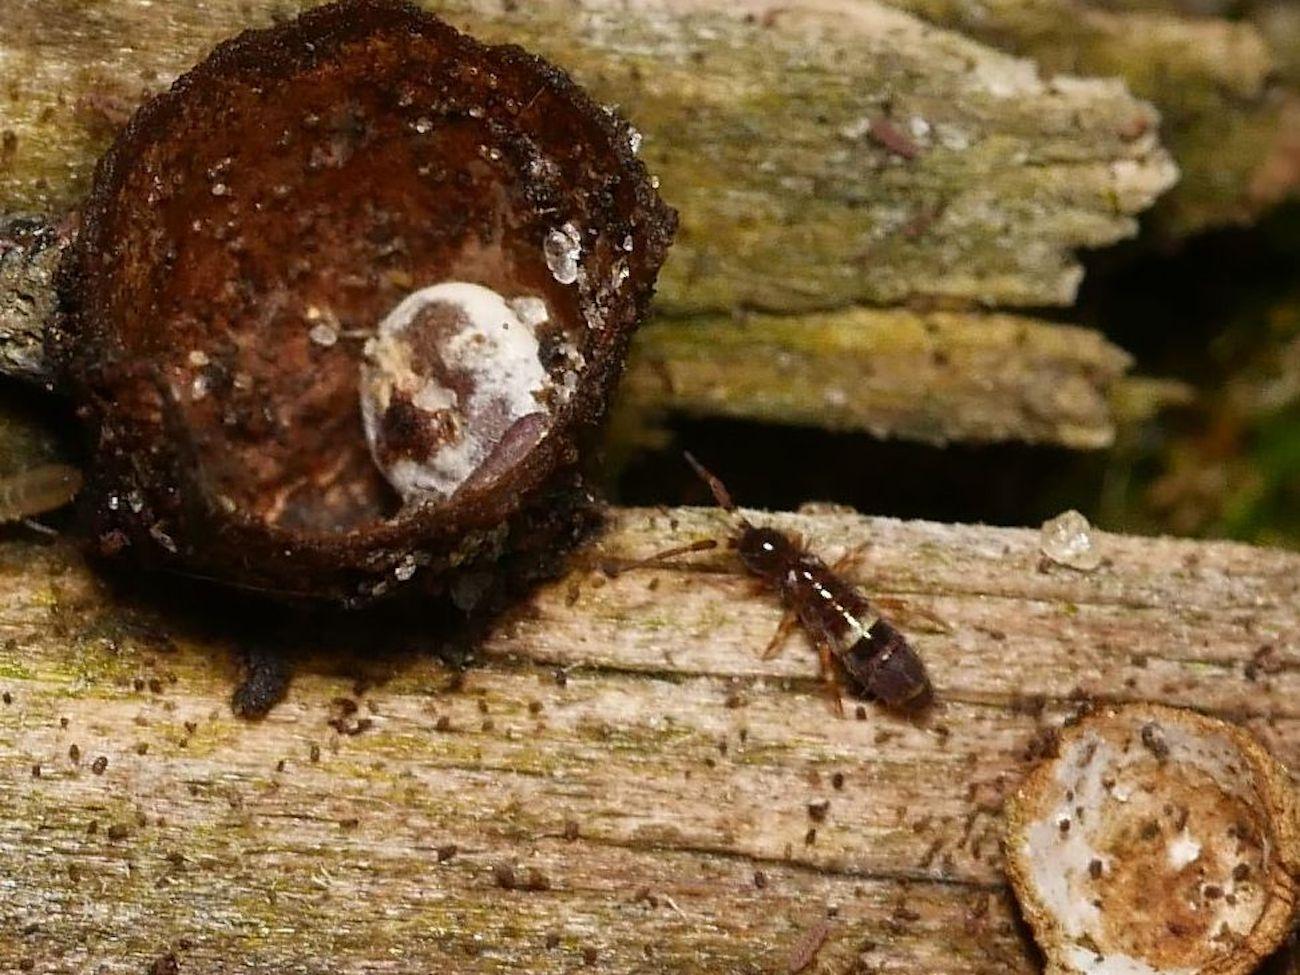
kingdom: Animalia
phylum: Arthropoda
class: Collembola
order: Entomobryomorpha
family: Orchesellidae
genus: Orchesella
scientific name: Orchesella cincta
